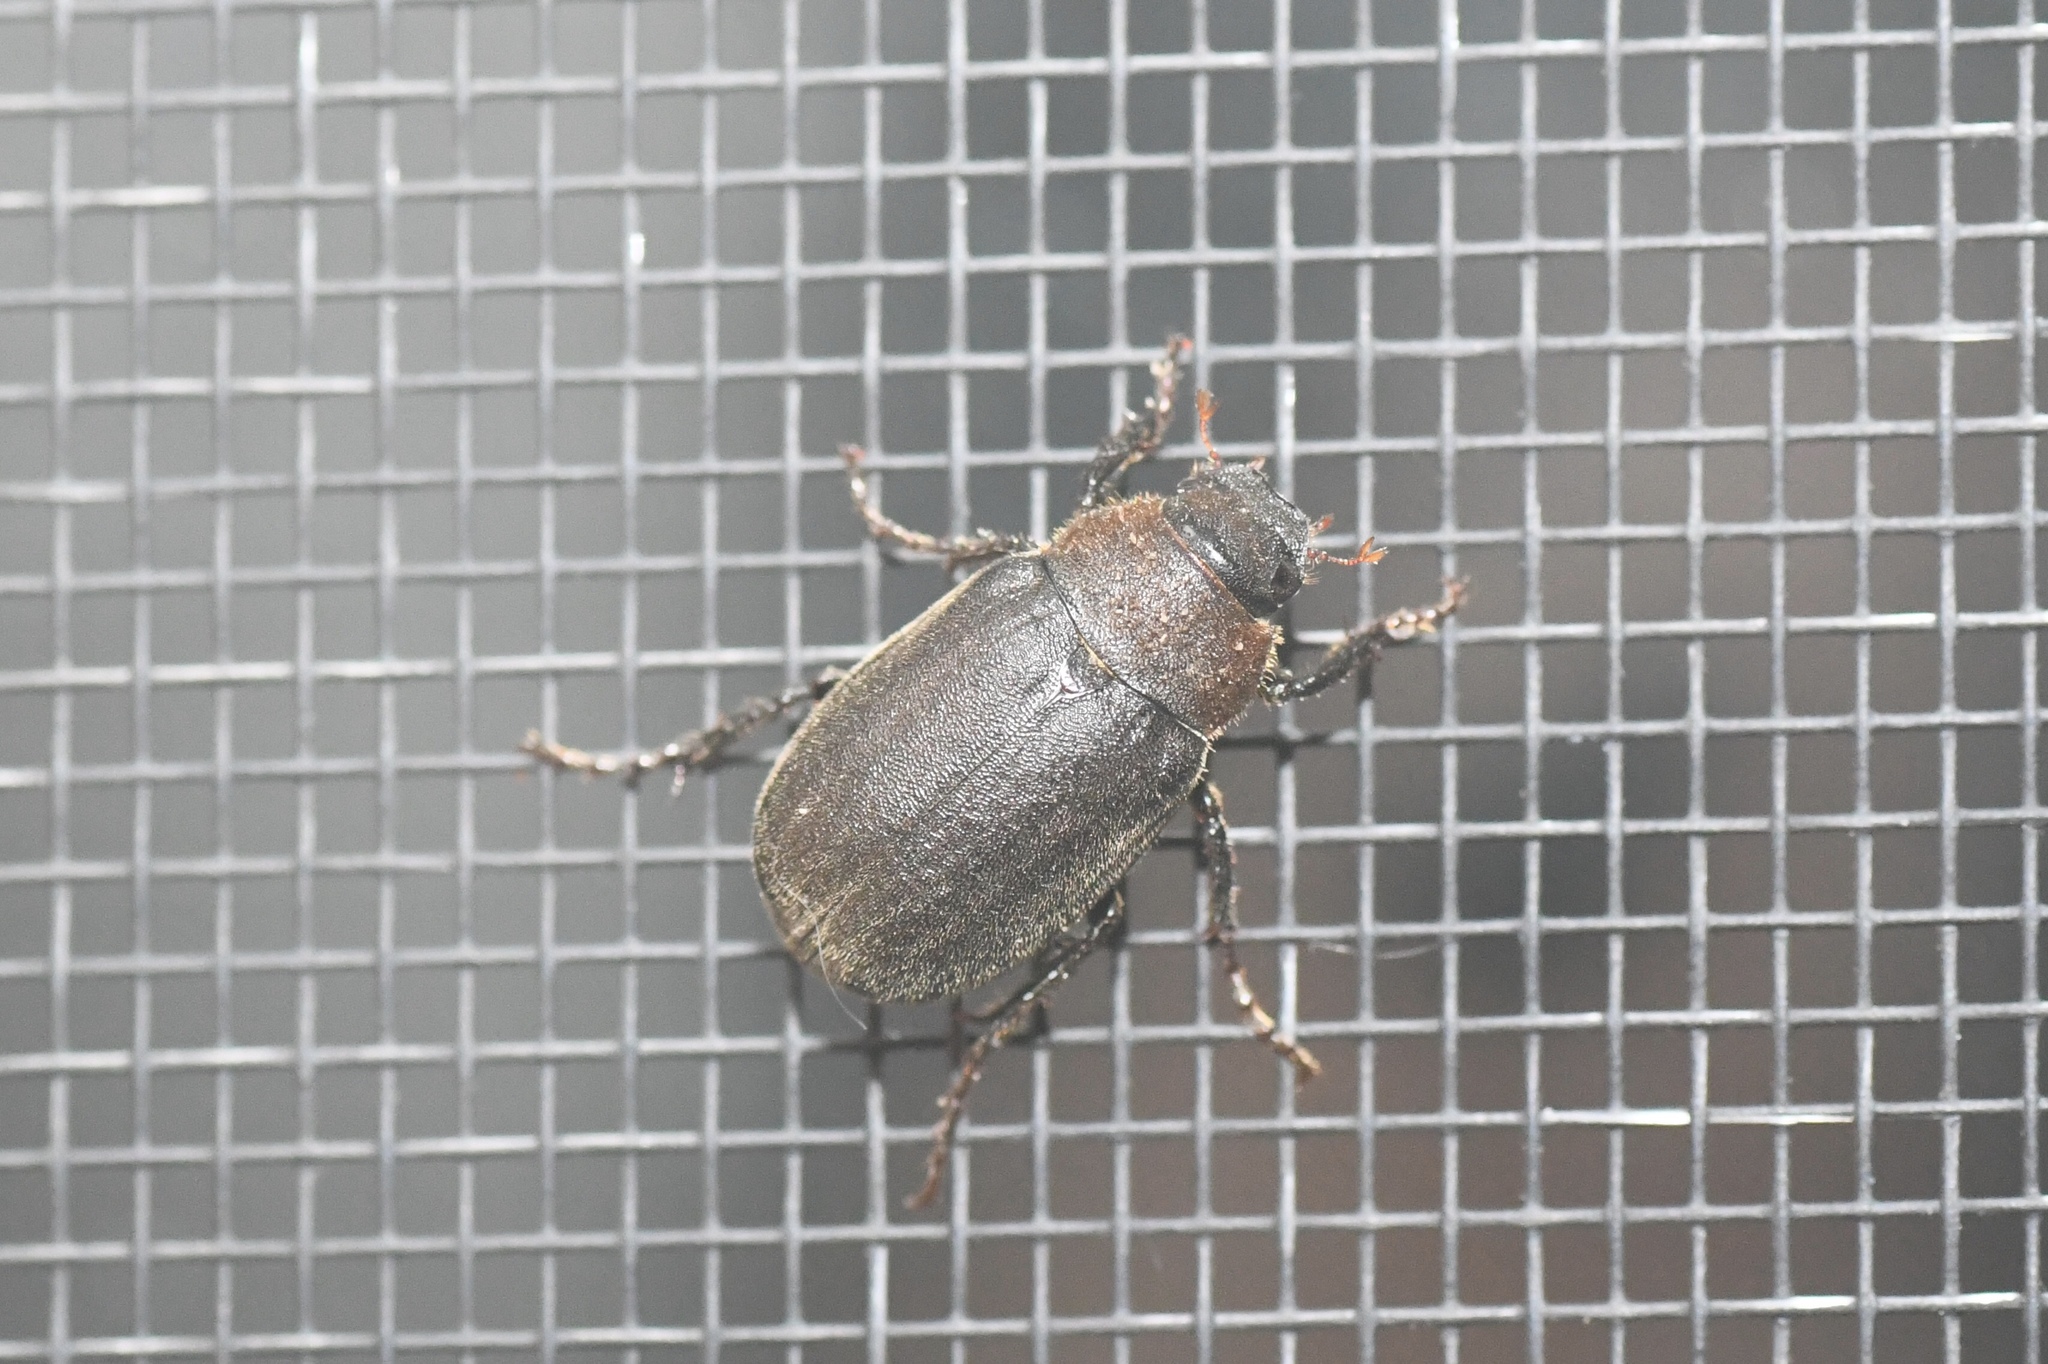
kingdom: Animalia
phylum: Arthropoda
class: Insecta
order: Coleoptera
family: Scarabaeidae
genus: Diplotaxis
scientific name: Diplotaxis sordida
